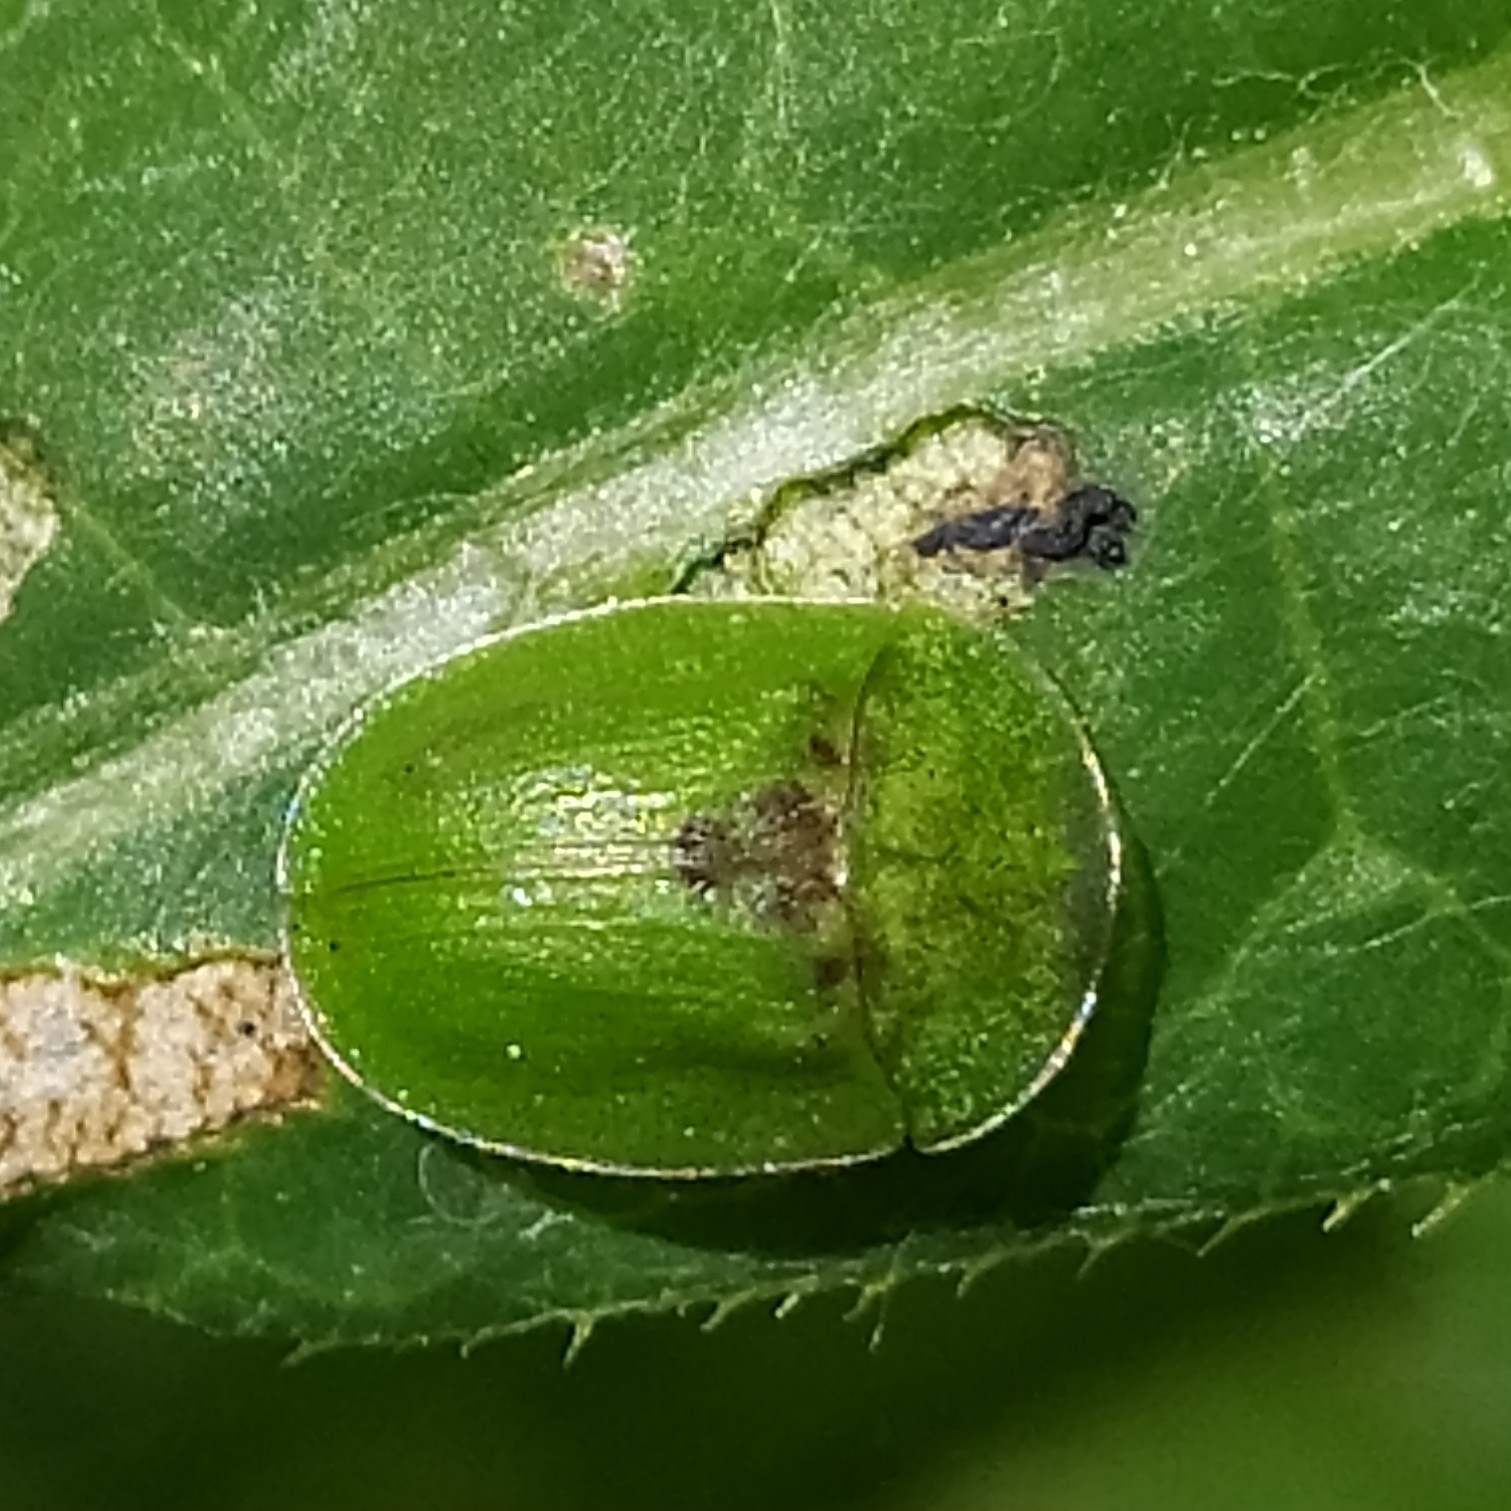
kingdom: Animalia
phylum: Arthropoda
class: Insecta
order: Coleoptera
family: Chrysomelidae
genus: Cassida
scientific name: Cassida vibex
